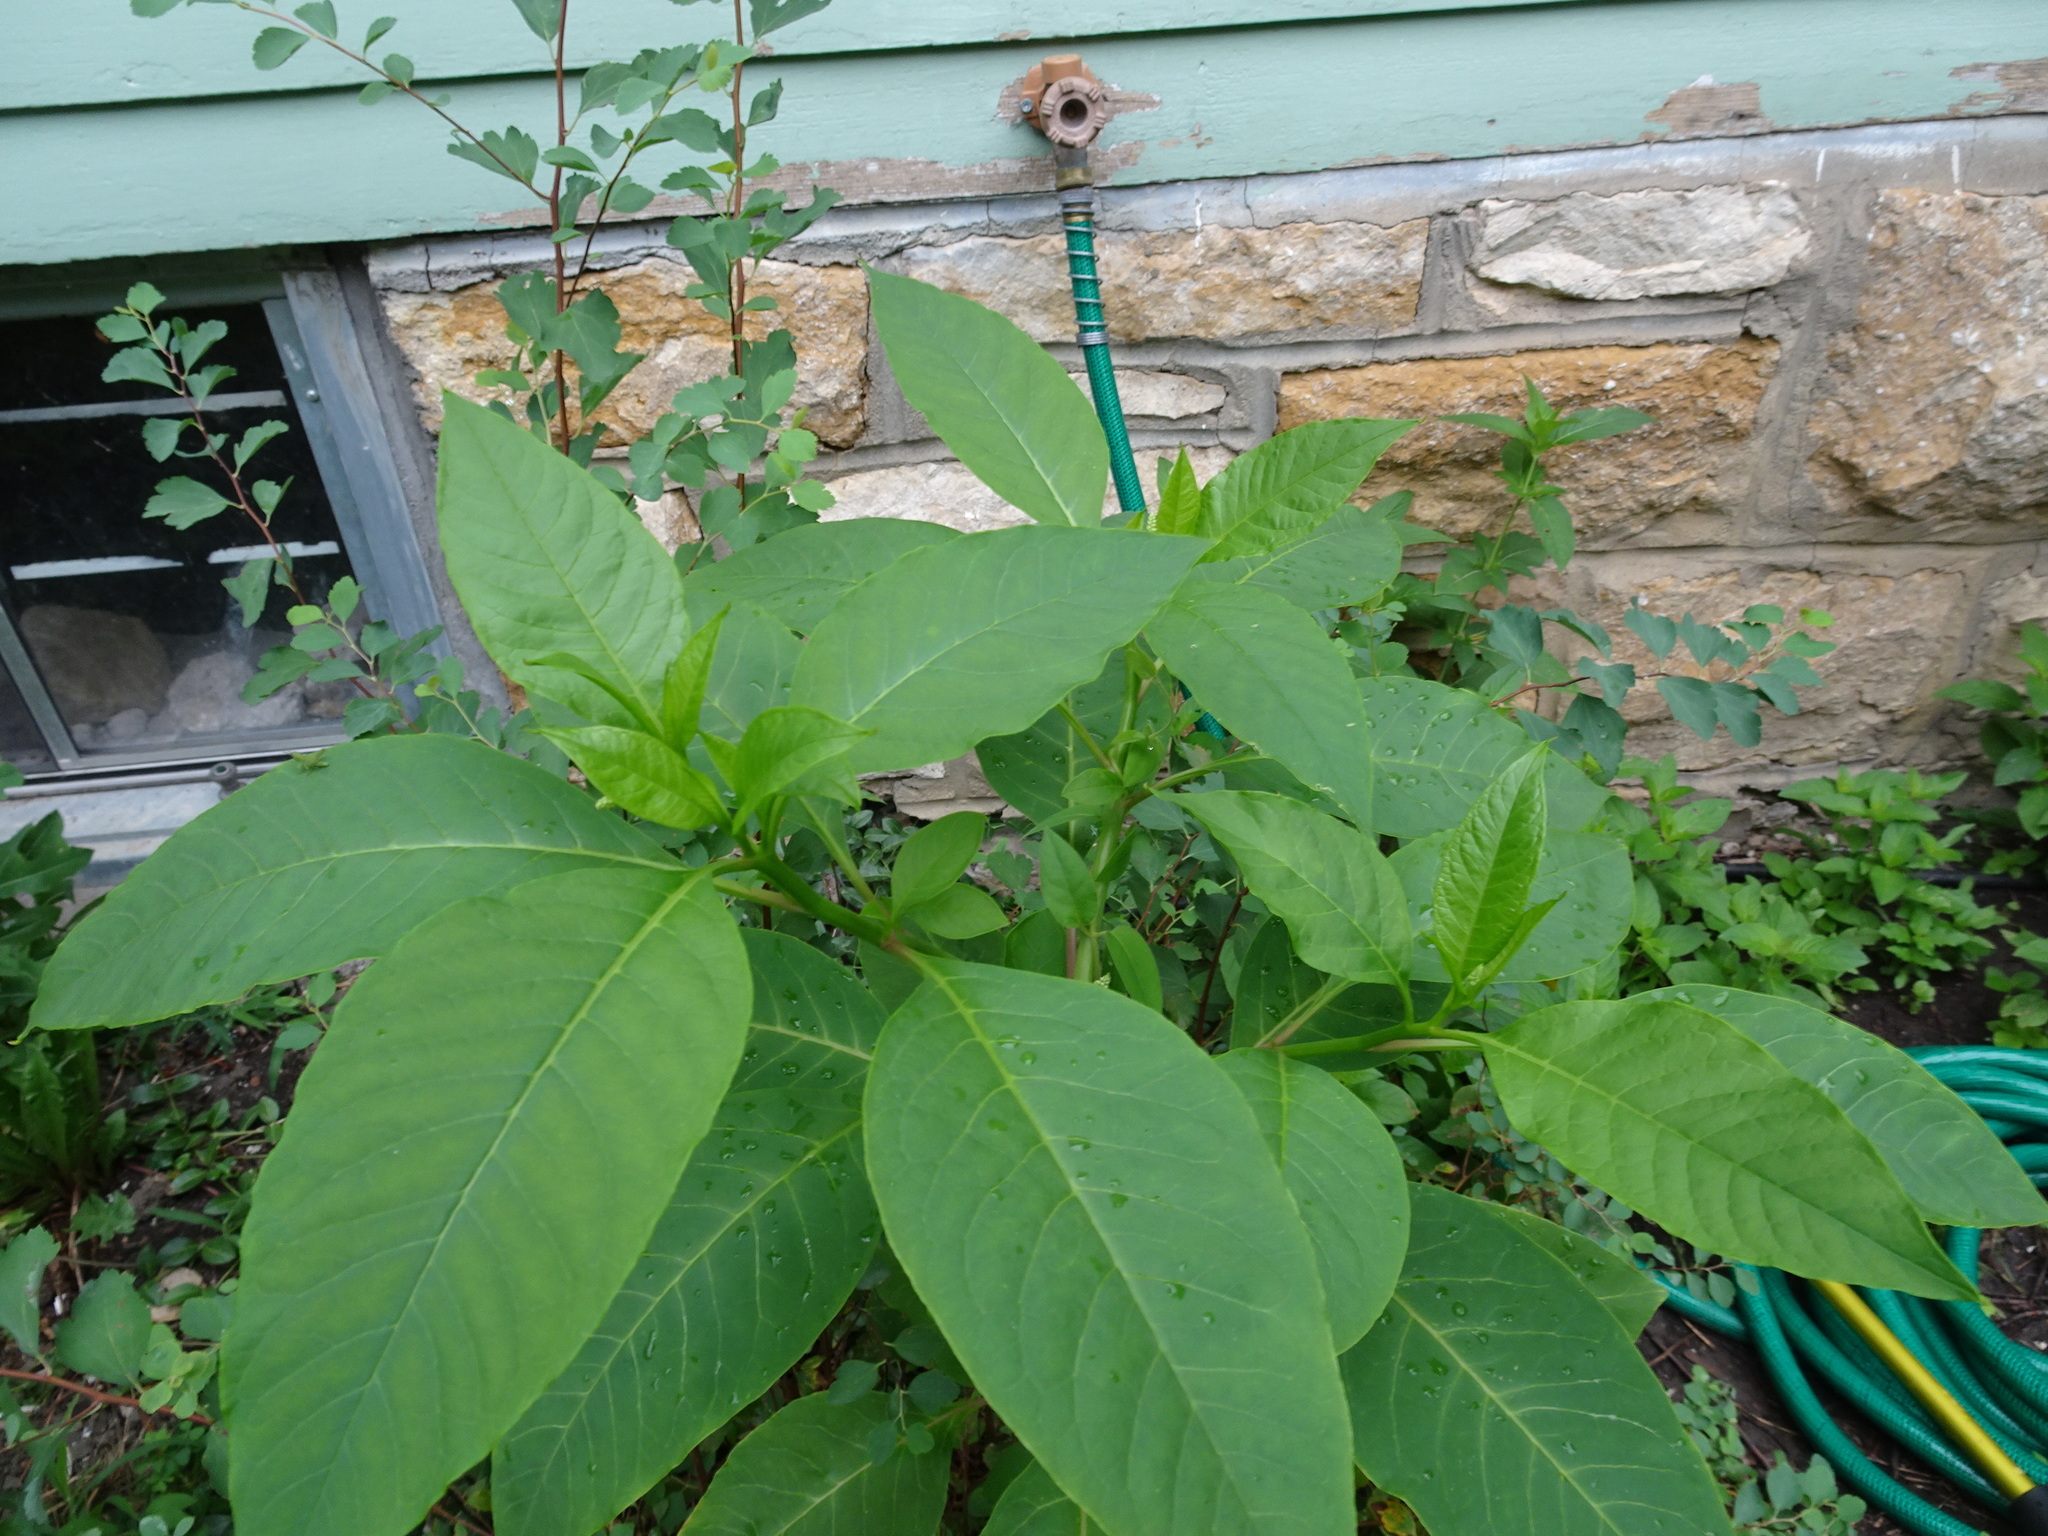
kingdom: Plantae
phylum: Tracheophyta
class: Magnoliopsida
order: Caryophyllales
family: Phytolaccaceae
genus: Phytolacca
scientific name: Phytolacca americana
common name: American pokeweed
